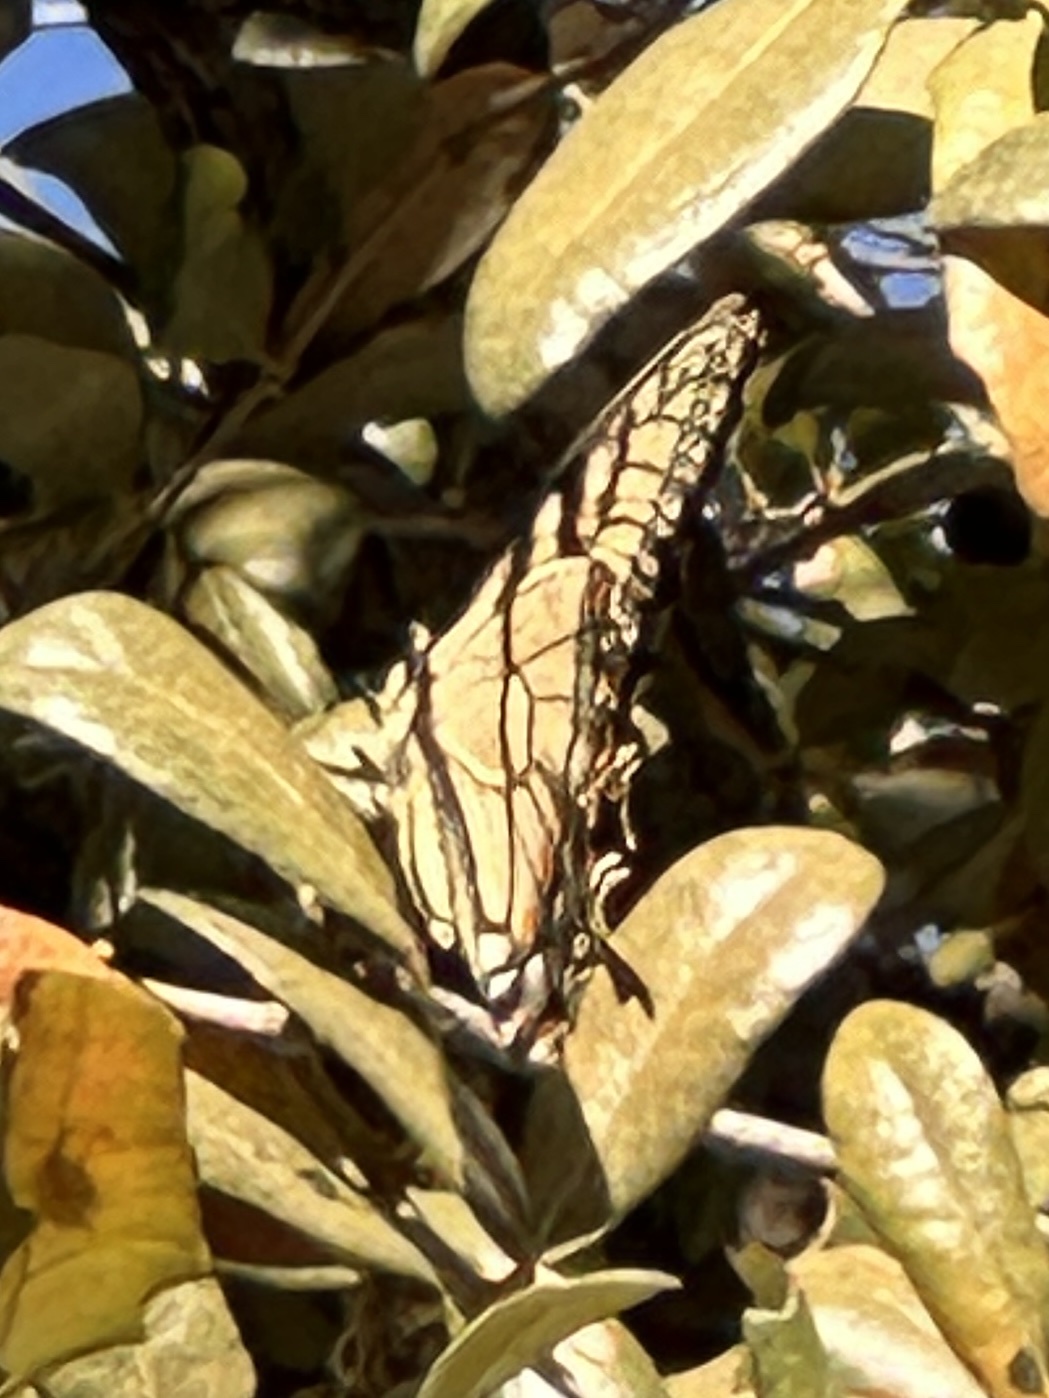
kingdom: Animalia
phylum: Arthropoda
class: Insecta
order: Lepidoptera
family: Papilionidae
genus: Papilio
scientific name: Papilio glaucus
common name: Tiger swallowtail
